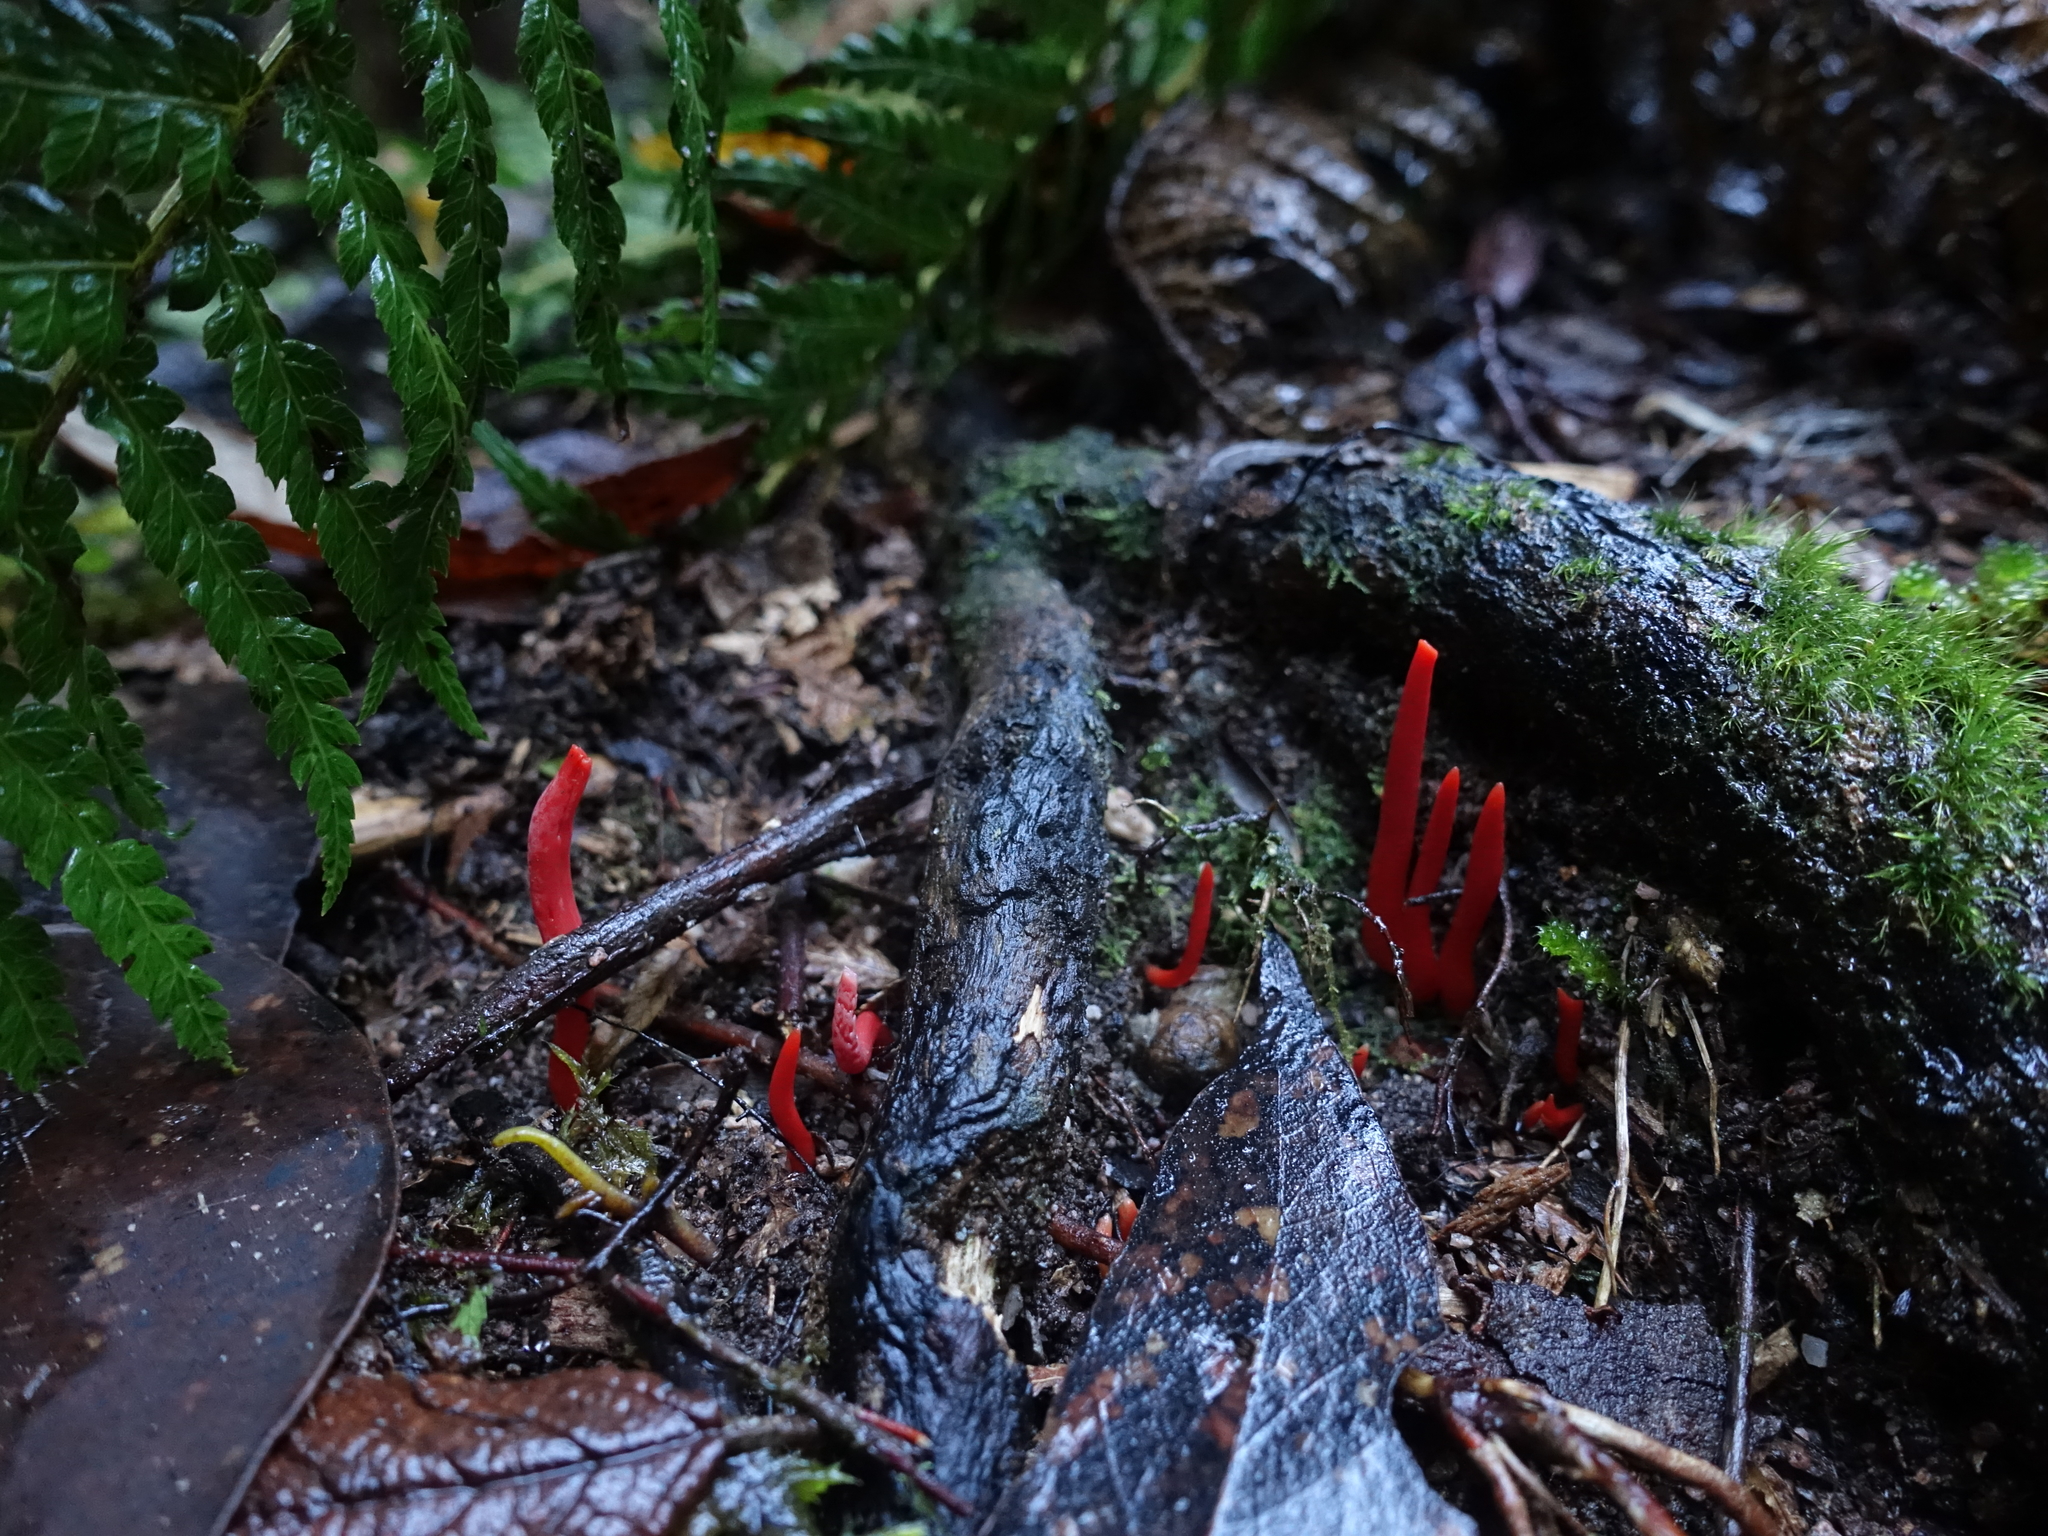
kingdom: Fungi
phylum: Basidiomycota
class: Agaricomycetes
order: Agaricales
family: Clavariaceae
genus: Clavulinopsis
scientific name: Clavulinopsis sulcata
